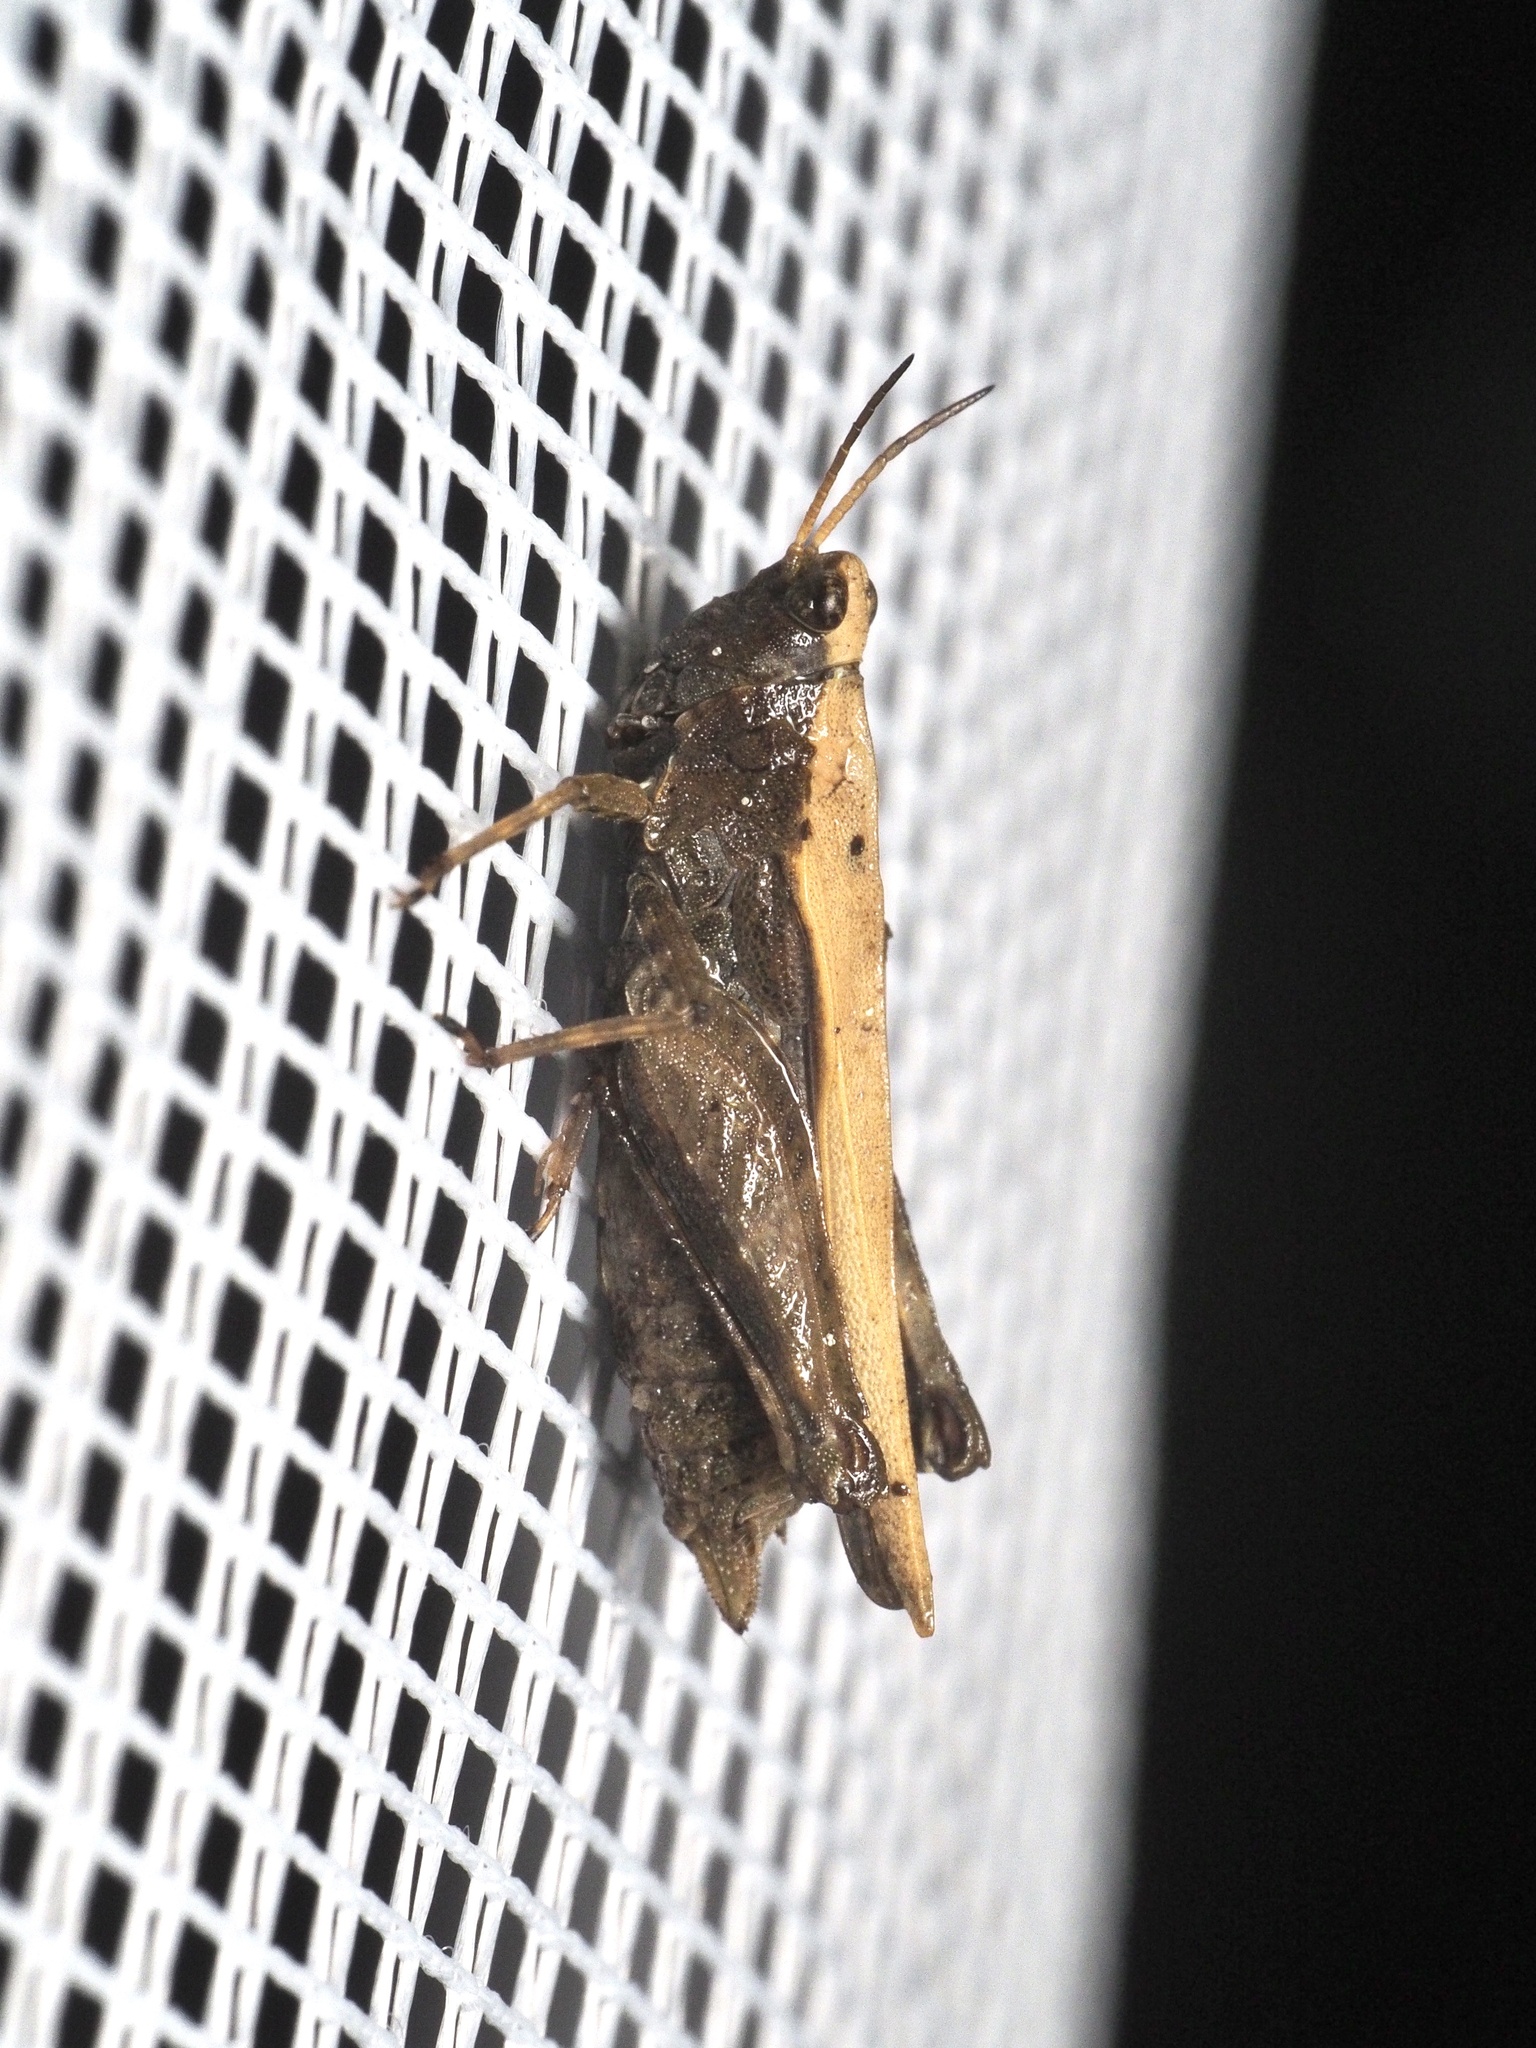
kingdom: Animalia
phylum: Arthropoda
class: Insecta
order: Orthoptera
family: Tetrigidae
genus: Tetrix
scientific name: Tetrix subulata
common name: Slender ground-hopper
